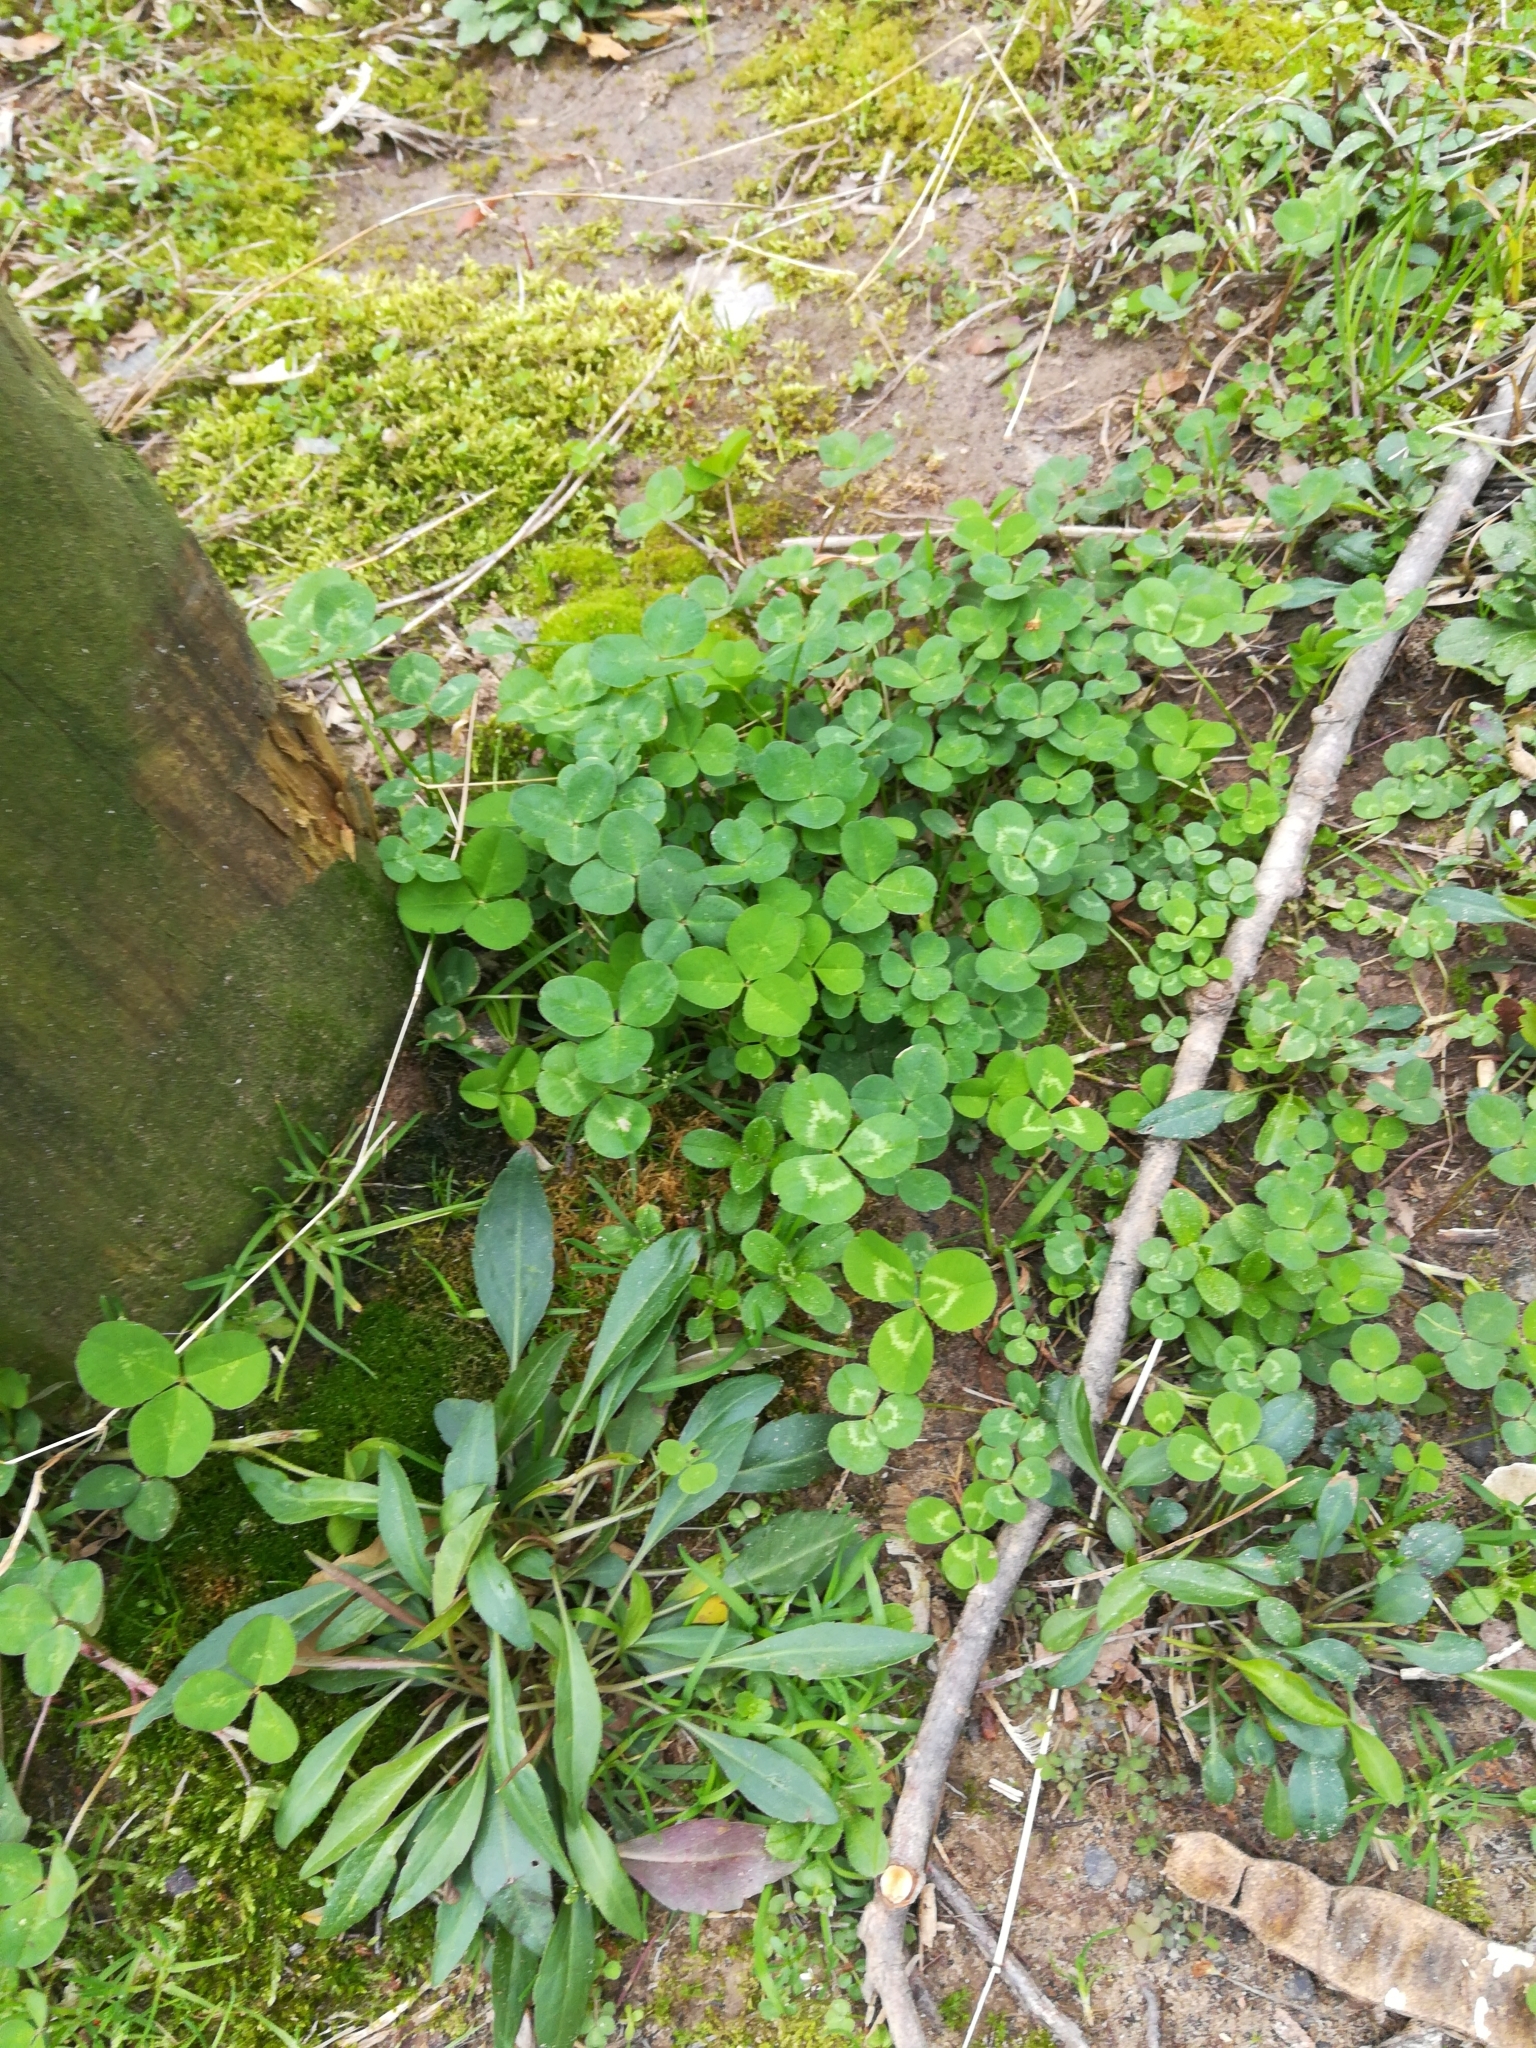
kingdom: Plantae
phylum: Tracheophyta
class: Magnoliopsida
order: Fabales
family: Fabaceae
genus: Trifolium
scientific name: Trifolium repens
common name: White clover
